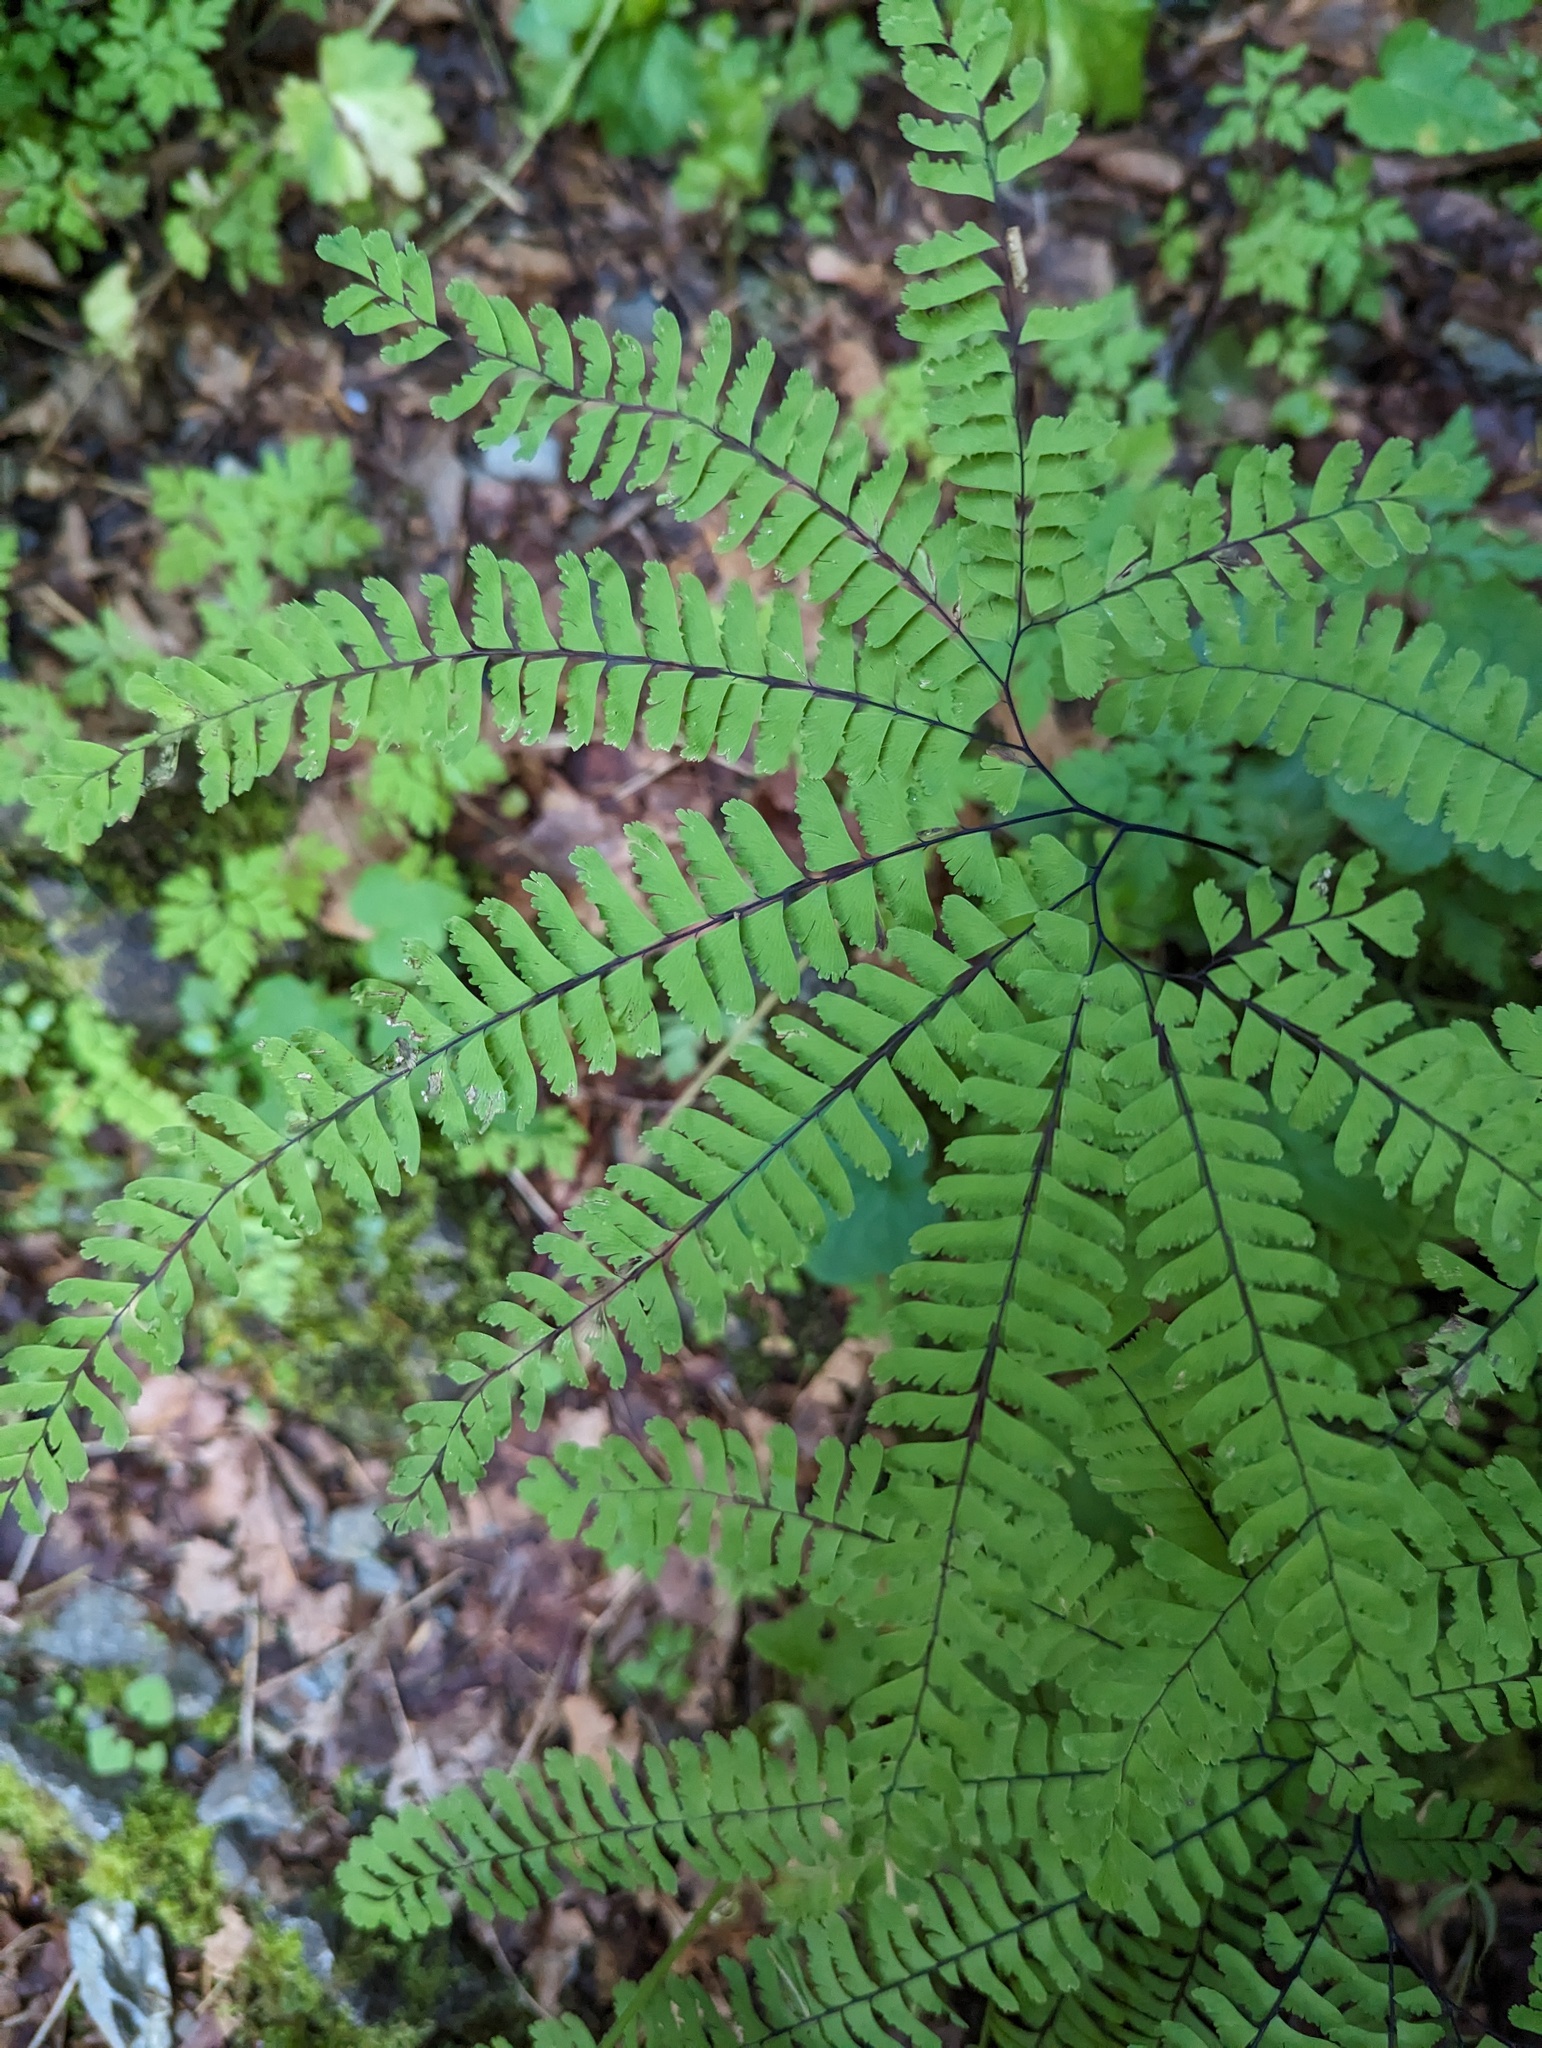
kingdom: Plantae
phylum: Tracheophyta
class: Polypodiopsida
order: Polypodiales
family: Pteridaceae
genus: Adiantum
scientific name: Adiantum aleuticum
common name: Aleutian maidenhair fern
